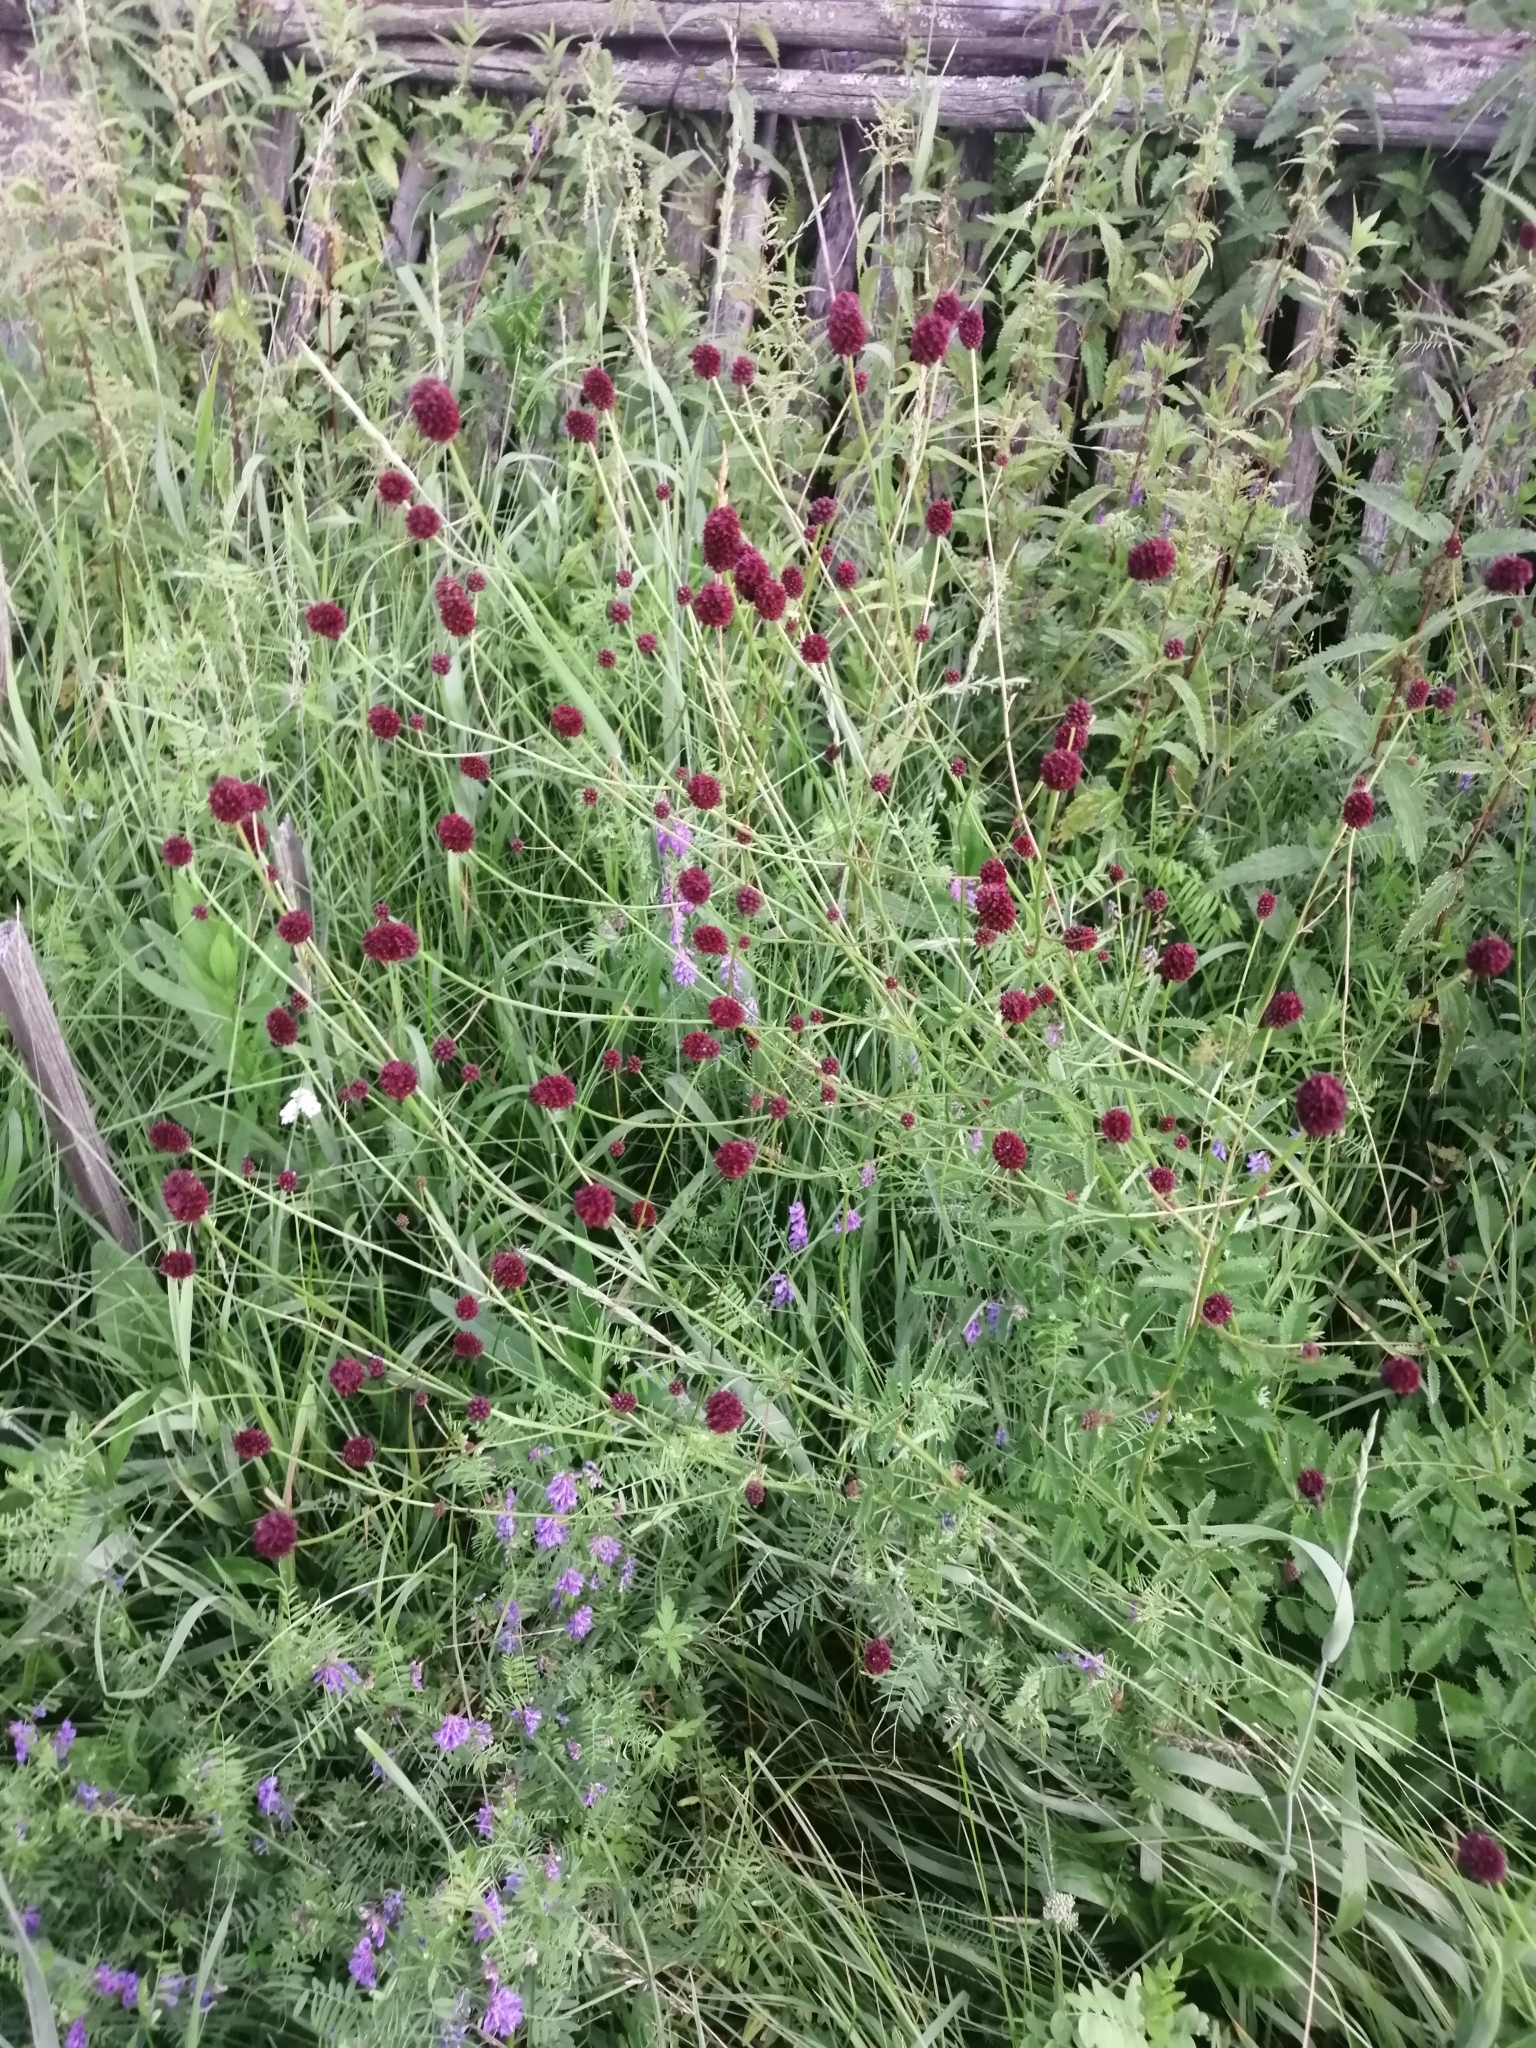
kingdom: Plantae
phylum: Tracheophyta
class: Magnoliopsida
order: Rosales
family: Rosaceae
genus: Sanguisorba
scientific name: Sanguisorba officinalis
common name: Great burnet
